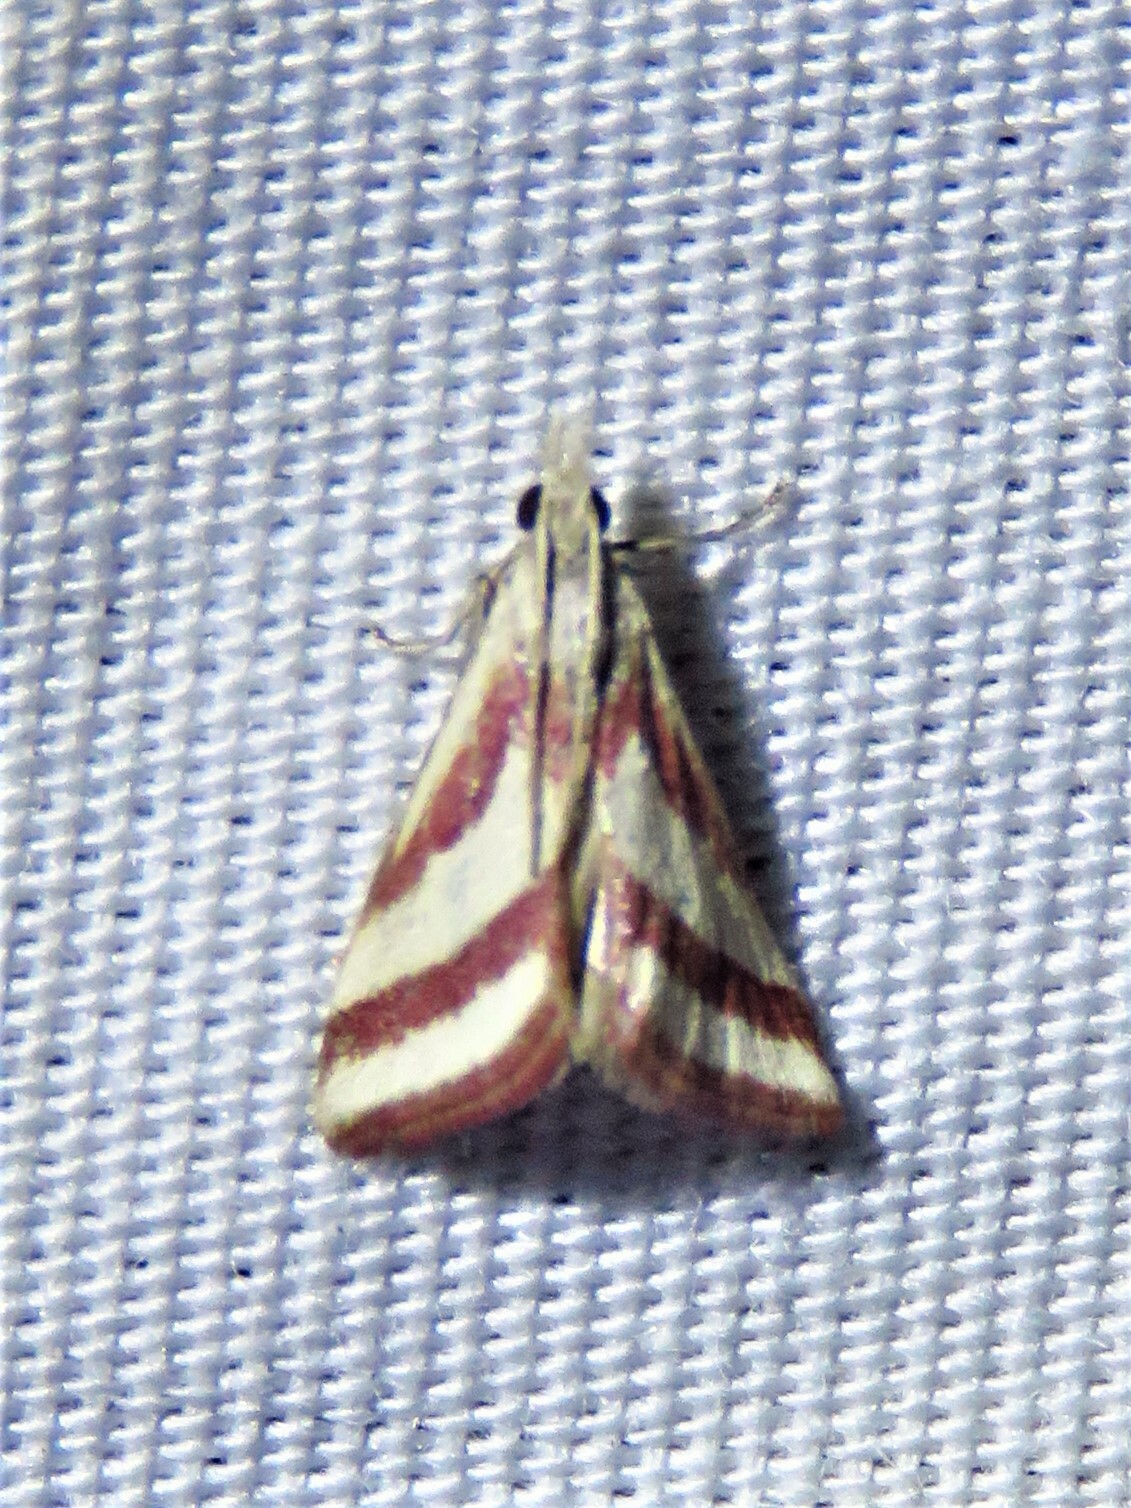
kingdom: Animalia
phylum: Arthropoda
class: Insecta
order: Lepidoptera
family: Crambidae
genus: Microtheoris
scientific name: Microtheoris vibicalis
